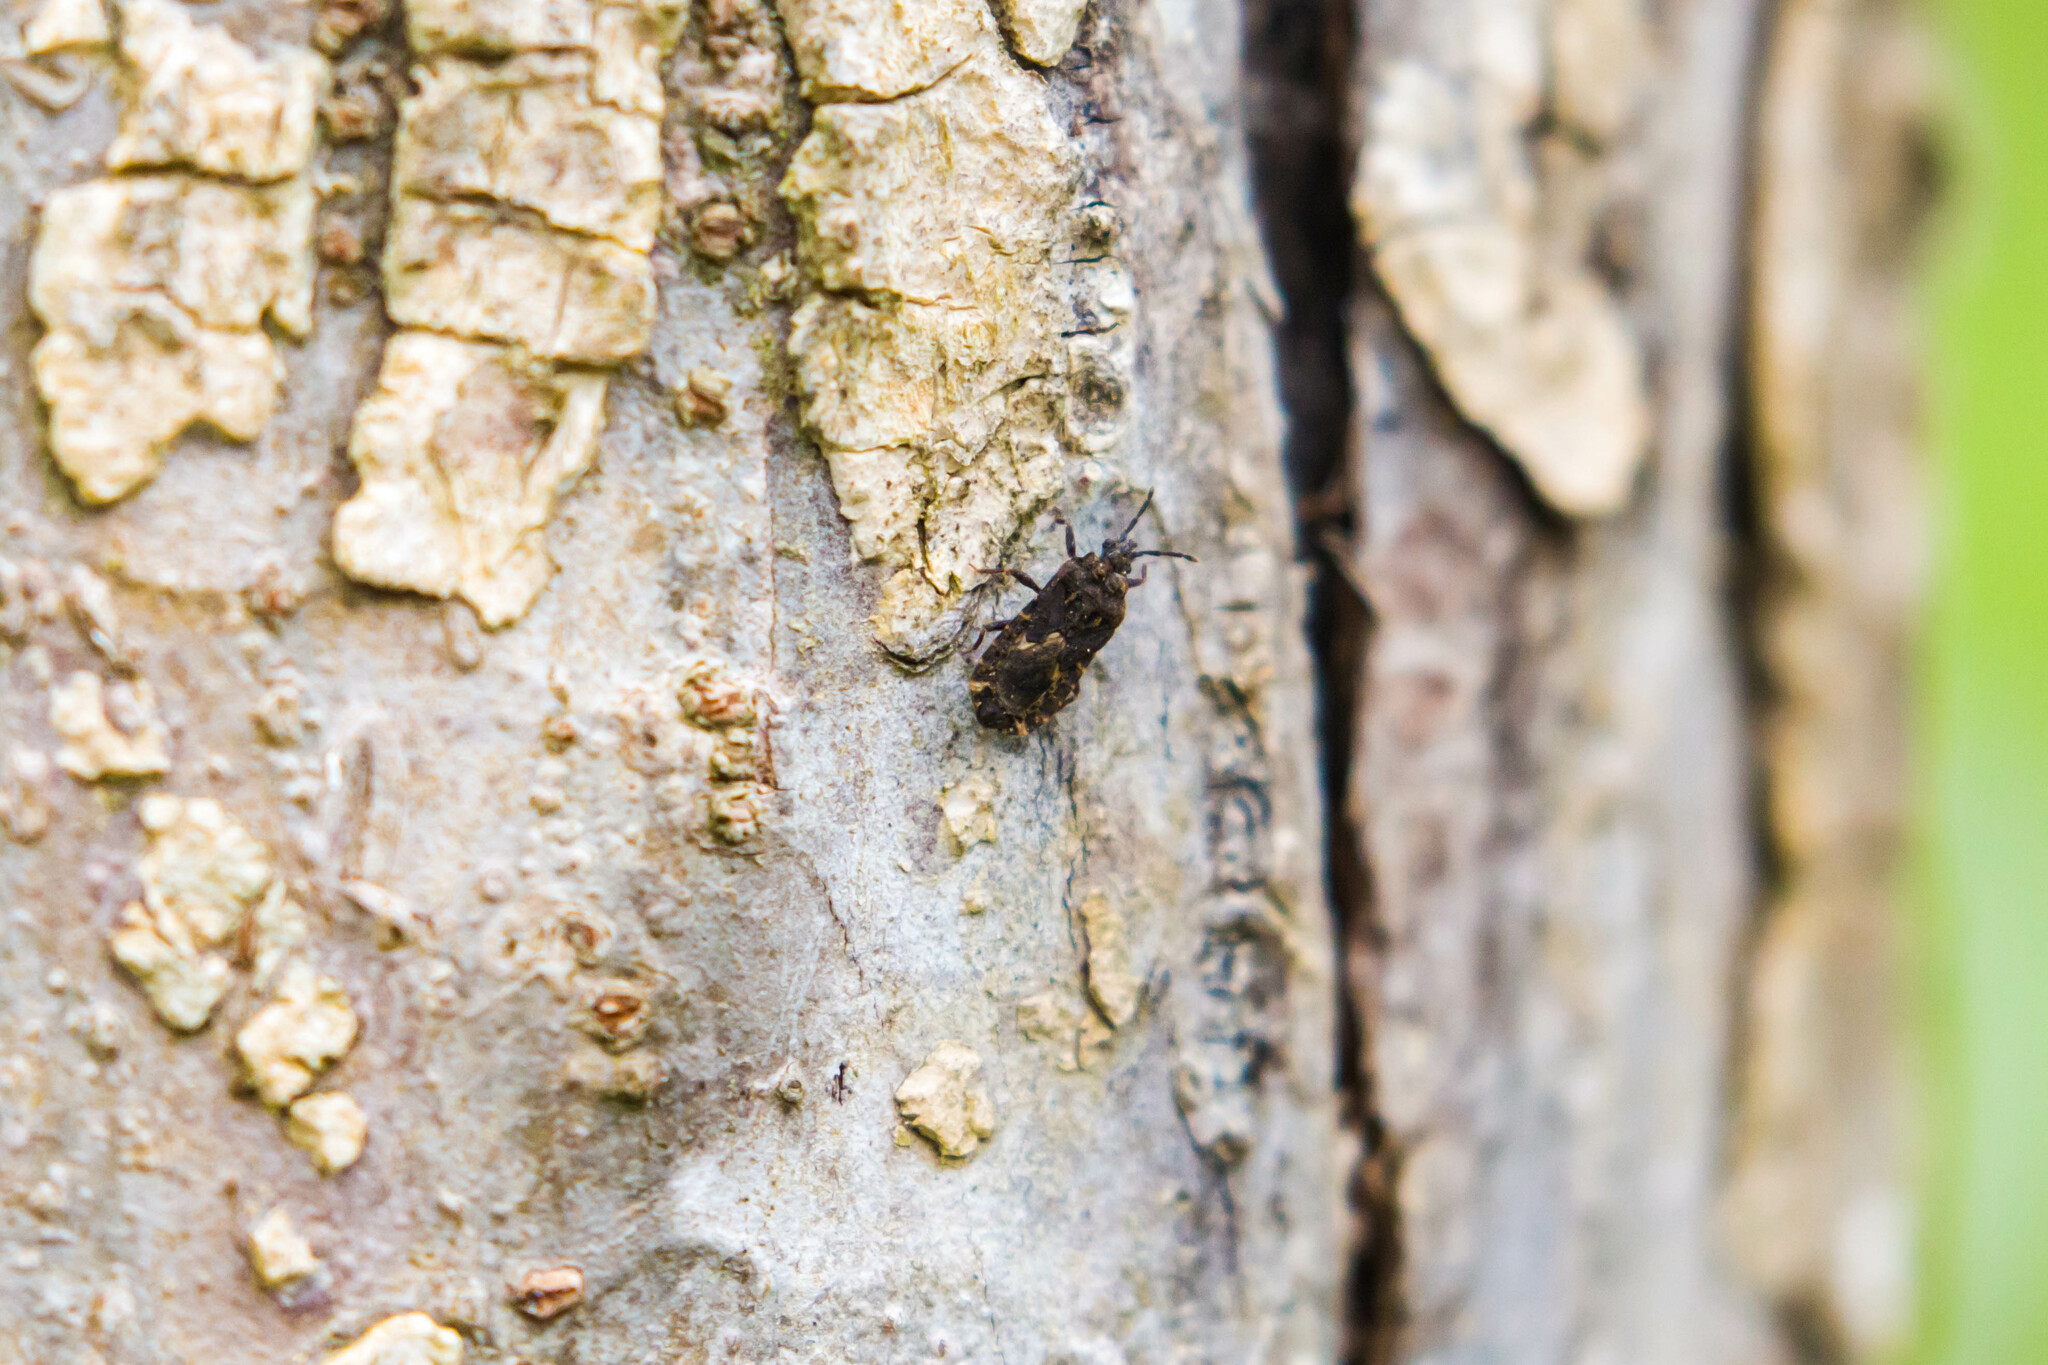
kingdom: Animalia
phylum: Arthropoda
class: Insecta
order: Hemiptera
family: Aradidae
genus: Mezira
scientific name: Mezira
